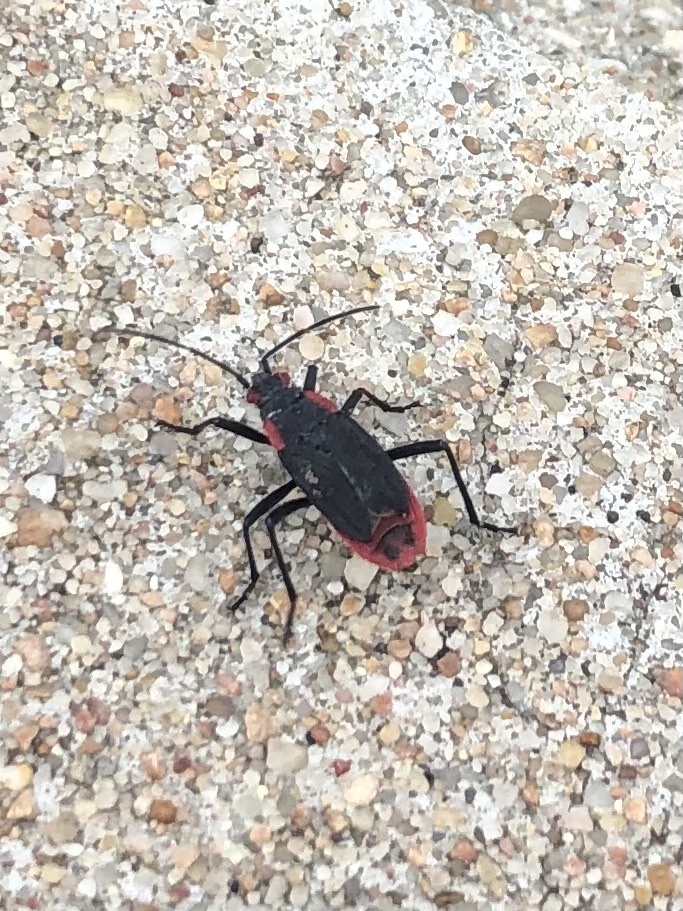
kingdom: Animalia
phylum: Arthropoda
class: Insecta
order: Hemiptera
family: Rhopalidae
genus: Jadera
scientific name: Jadera haematoloma
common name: Red-shouldered bug
